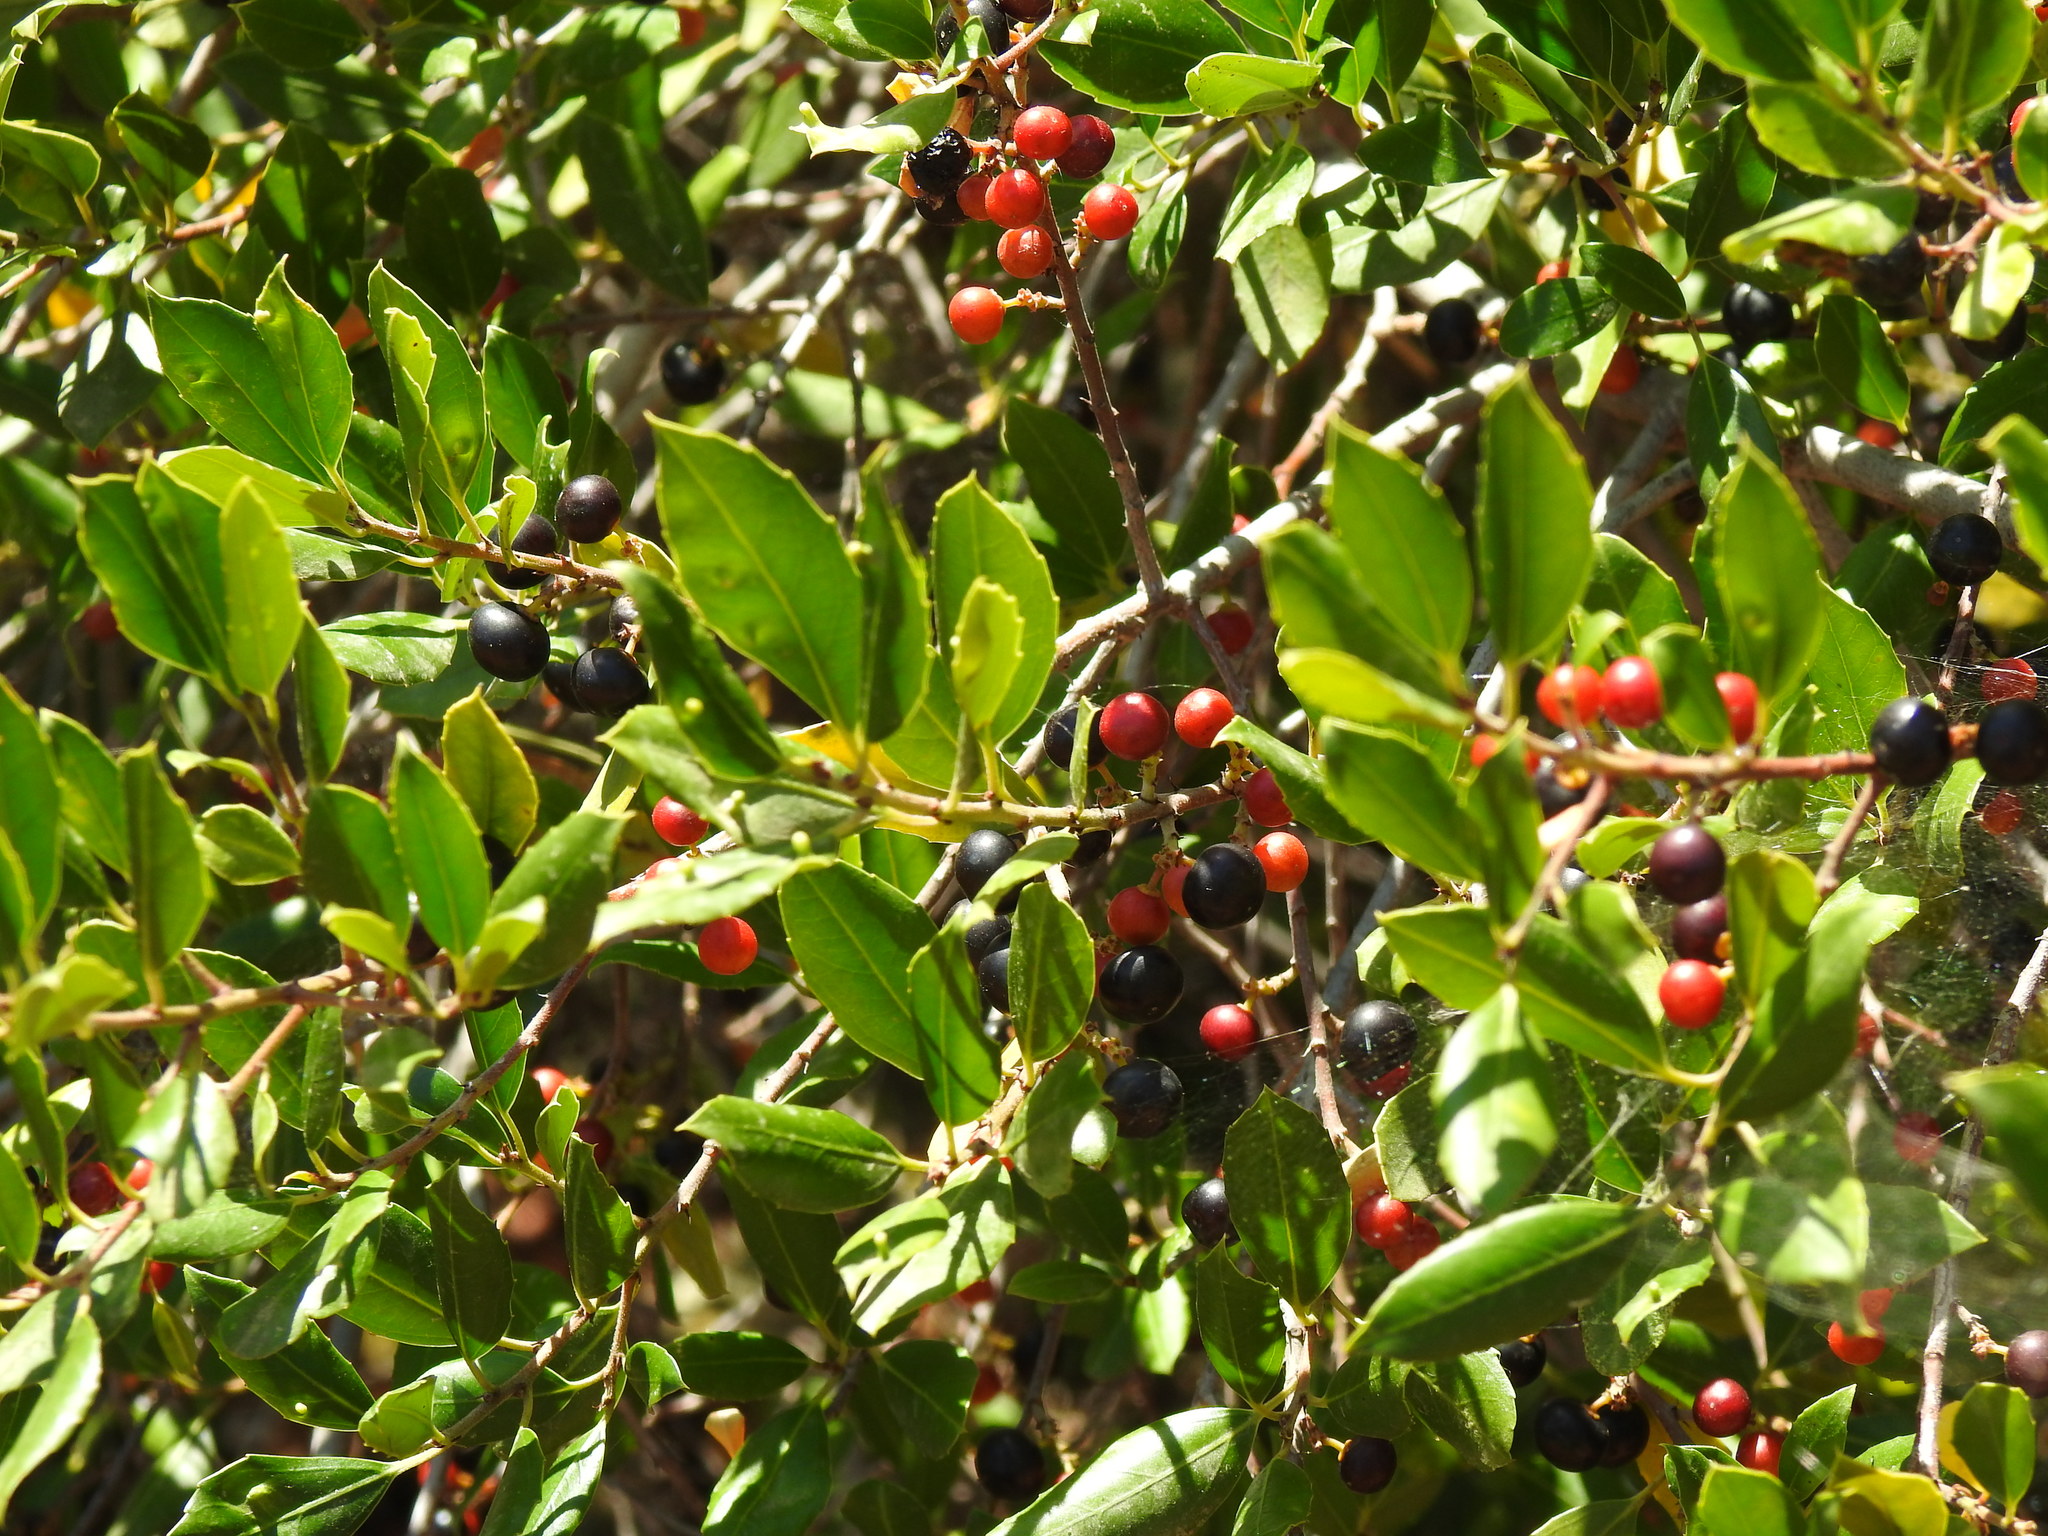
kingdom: Plantae
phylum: Tracheophyta
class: Magnoliopsida
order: Rosales
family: Rhamnaceae
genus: Rhamnus
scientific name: Rhamnus alaternus
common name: Mediterranean buckthorn
